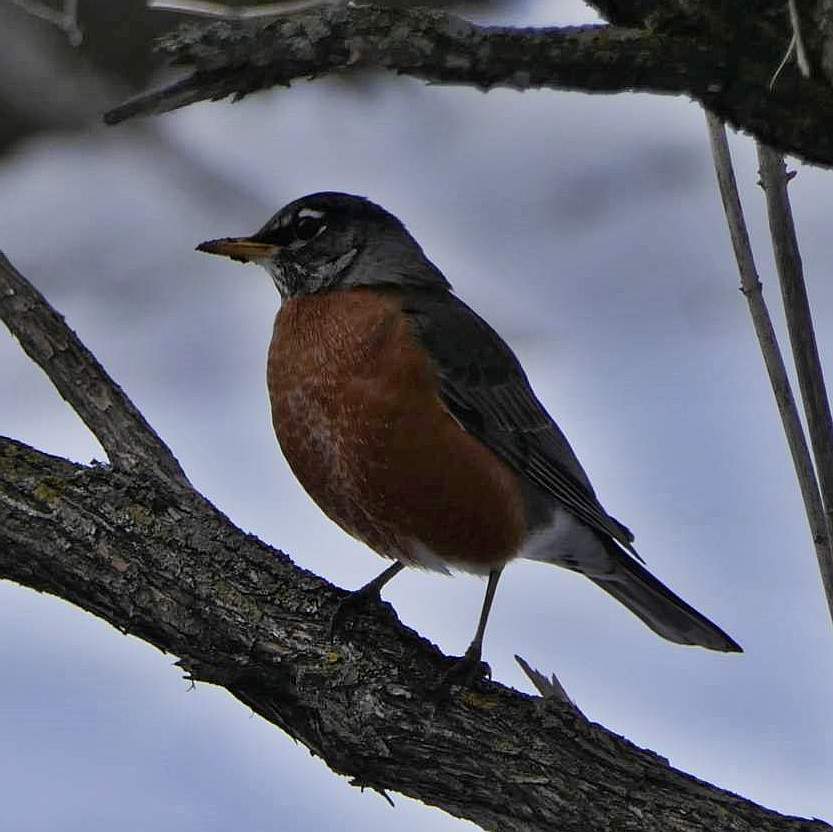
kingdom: Animalia
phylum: Chordata
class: Aves
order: Passeriformes
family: Turdidae
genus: Turdus
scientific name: Turdus migratorius
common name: American robin
